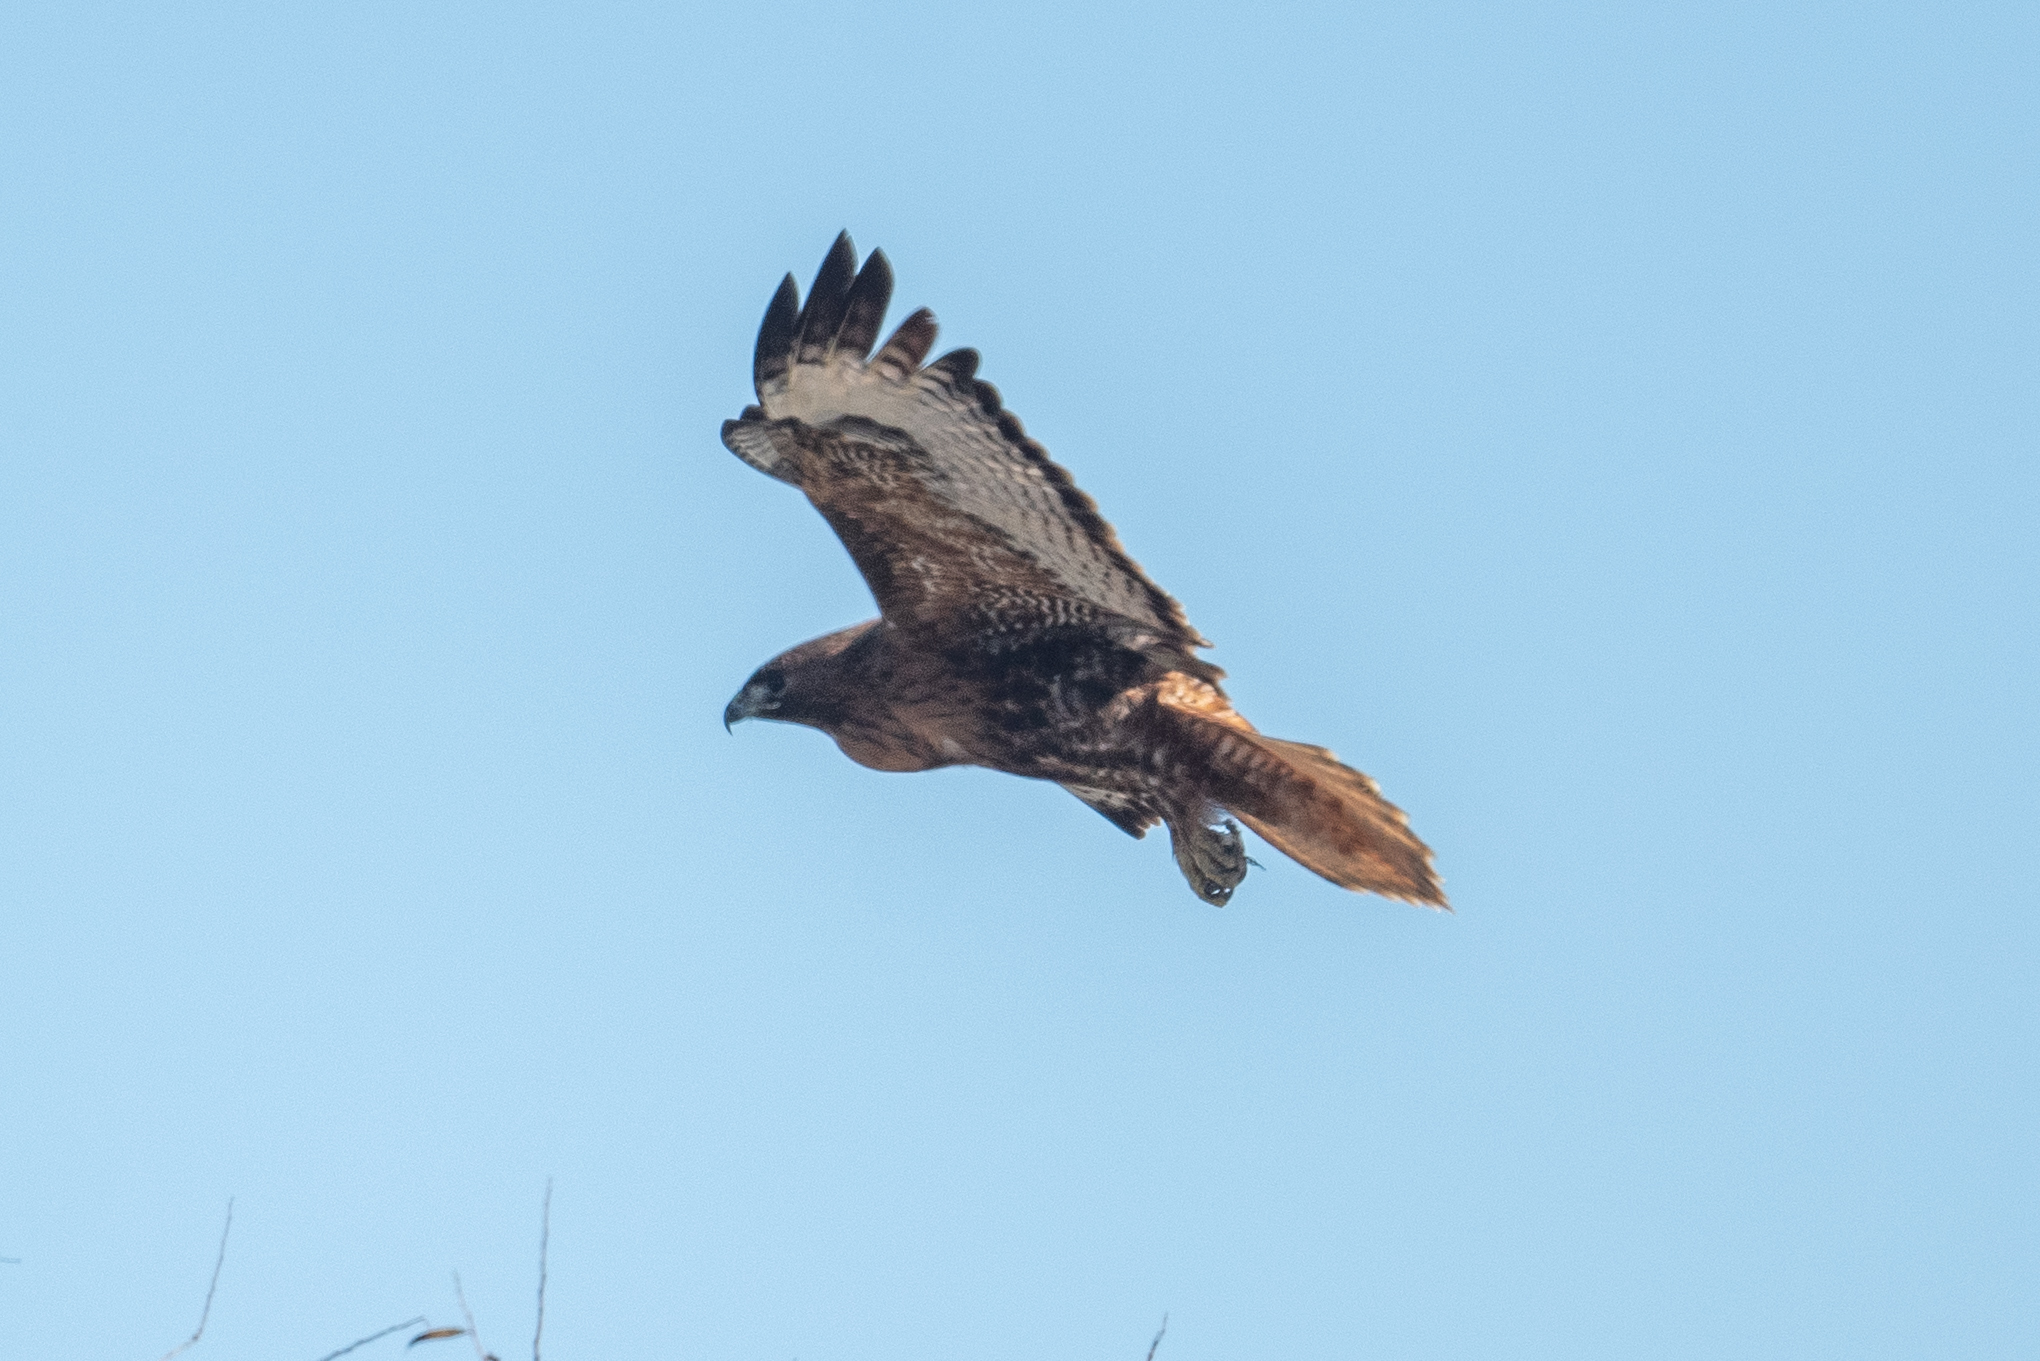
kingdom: Animalia
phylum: Chordata
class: Aves
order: Accipitriformes
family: Accipitridae
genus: Buteo
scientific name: Buteo jamaicensis
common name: Red-tailed hawk
